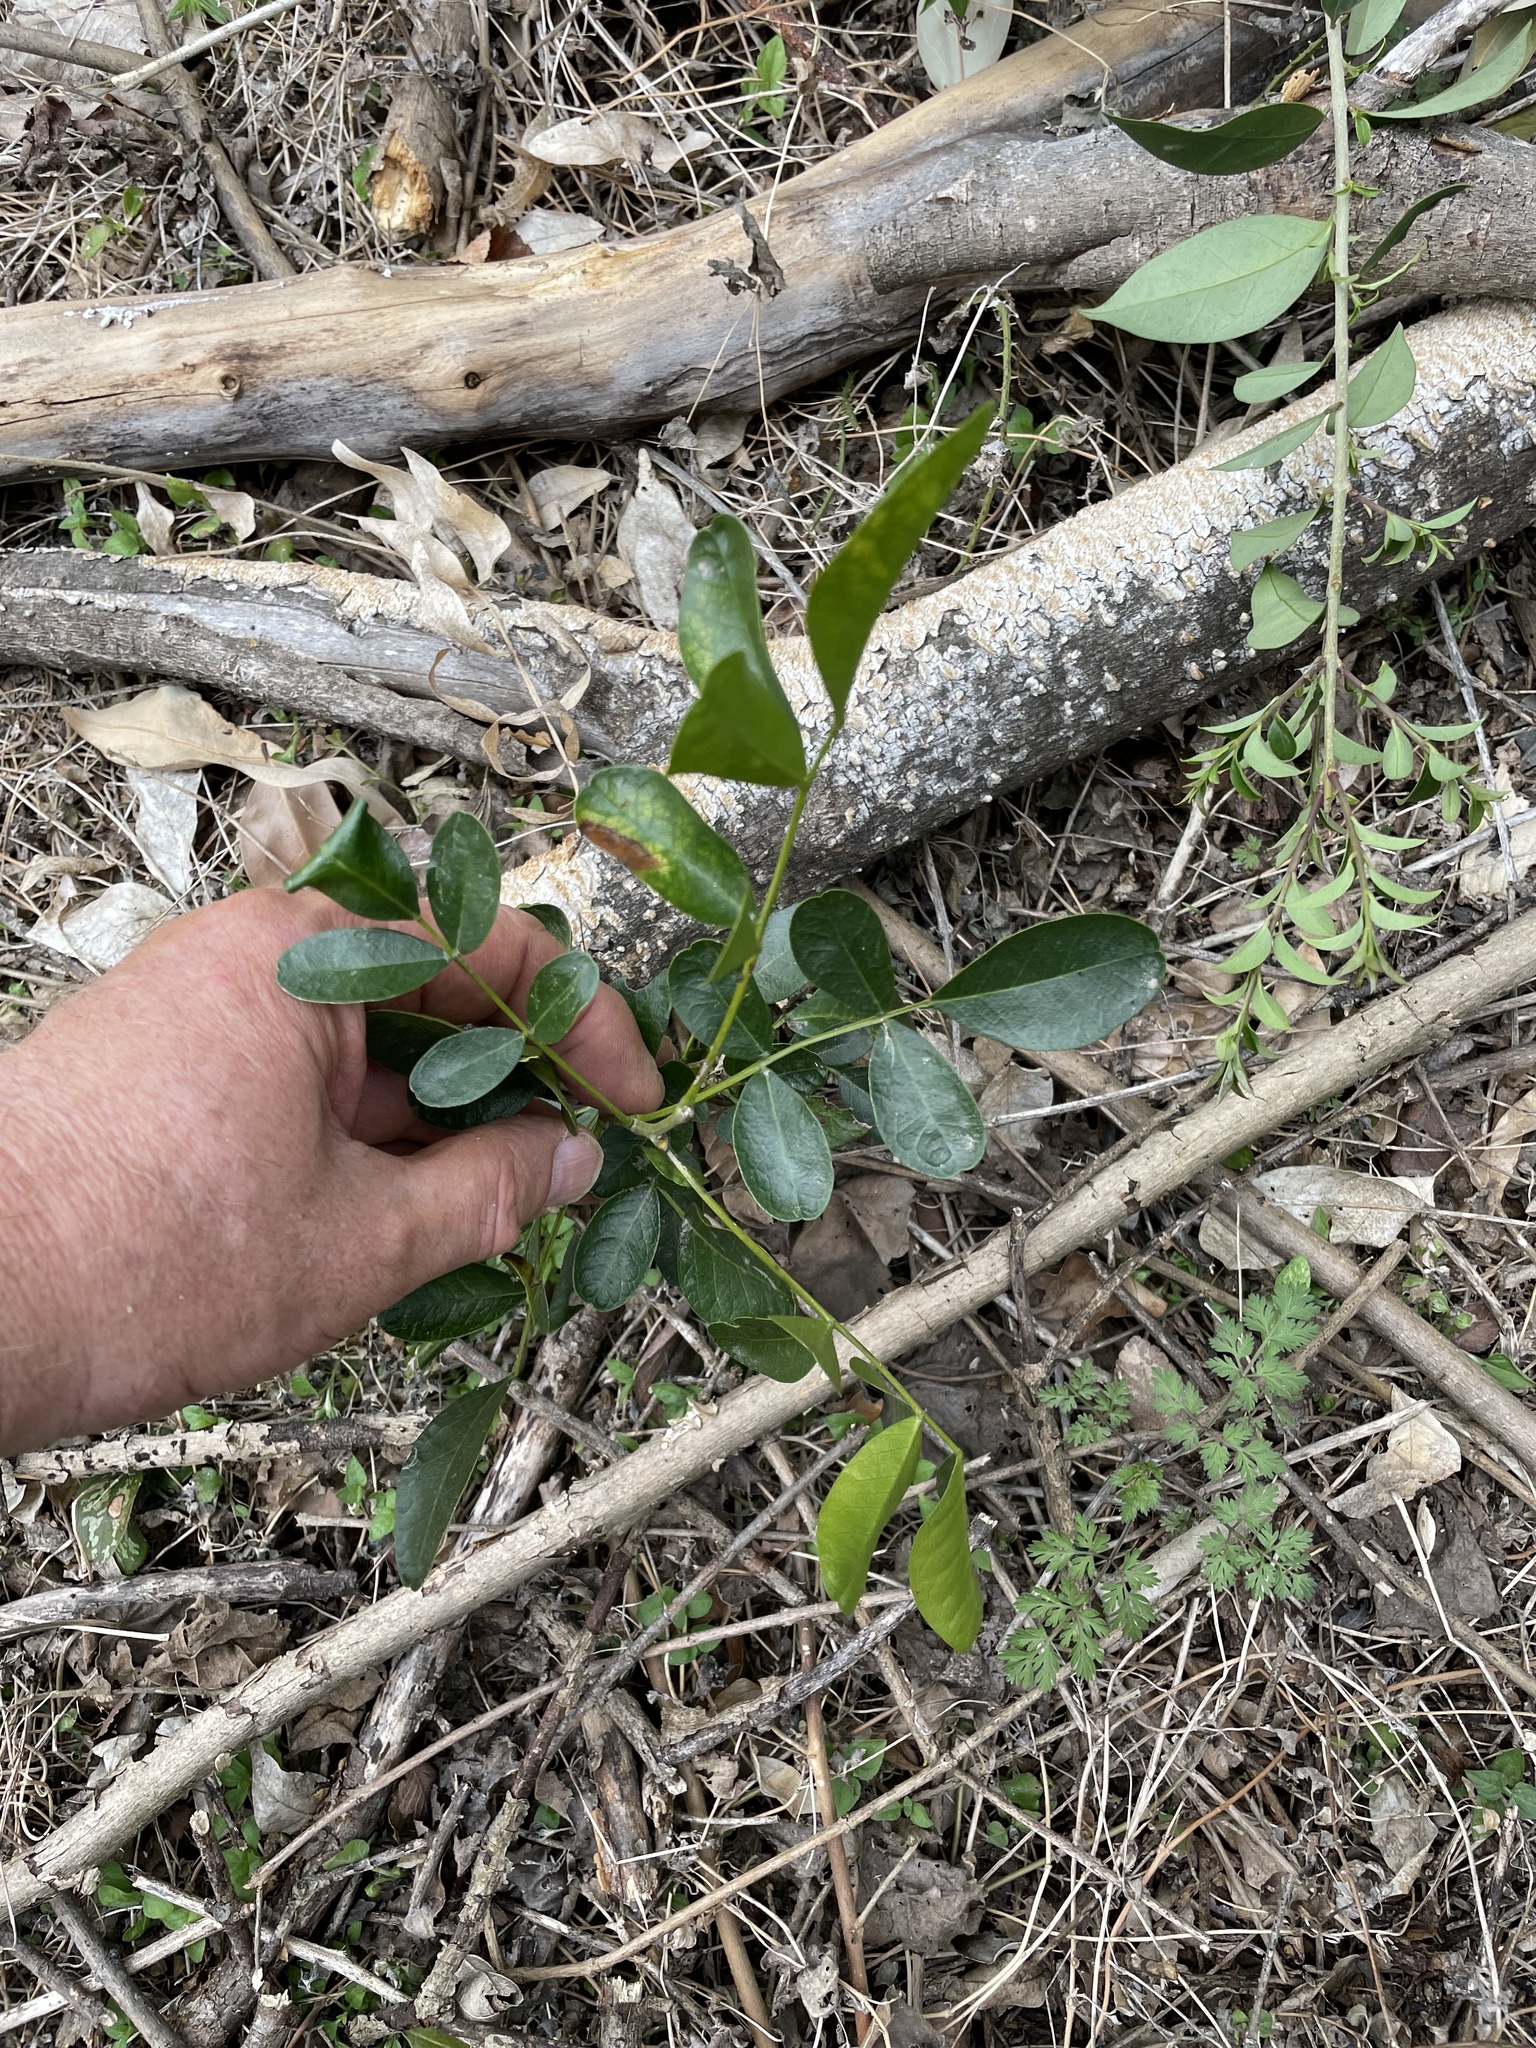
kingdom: Plantae
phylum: Tracheophyta
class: Magnoliopsida
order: Fabales
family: Fabaceae
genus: Dermatophyllum
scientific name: Dermatophyllum secundiflorum
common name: Texas-mountain-laurel
